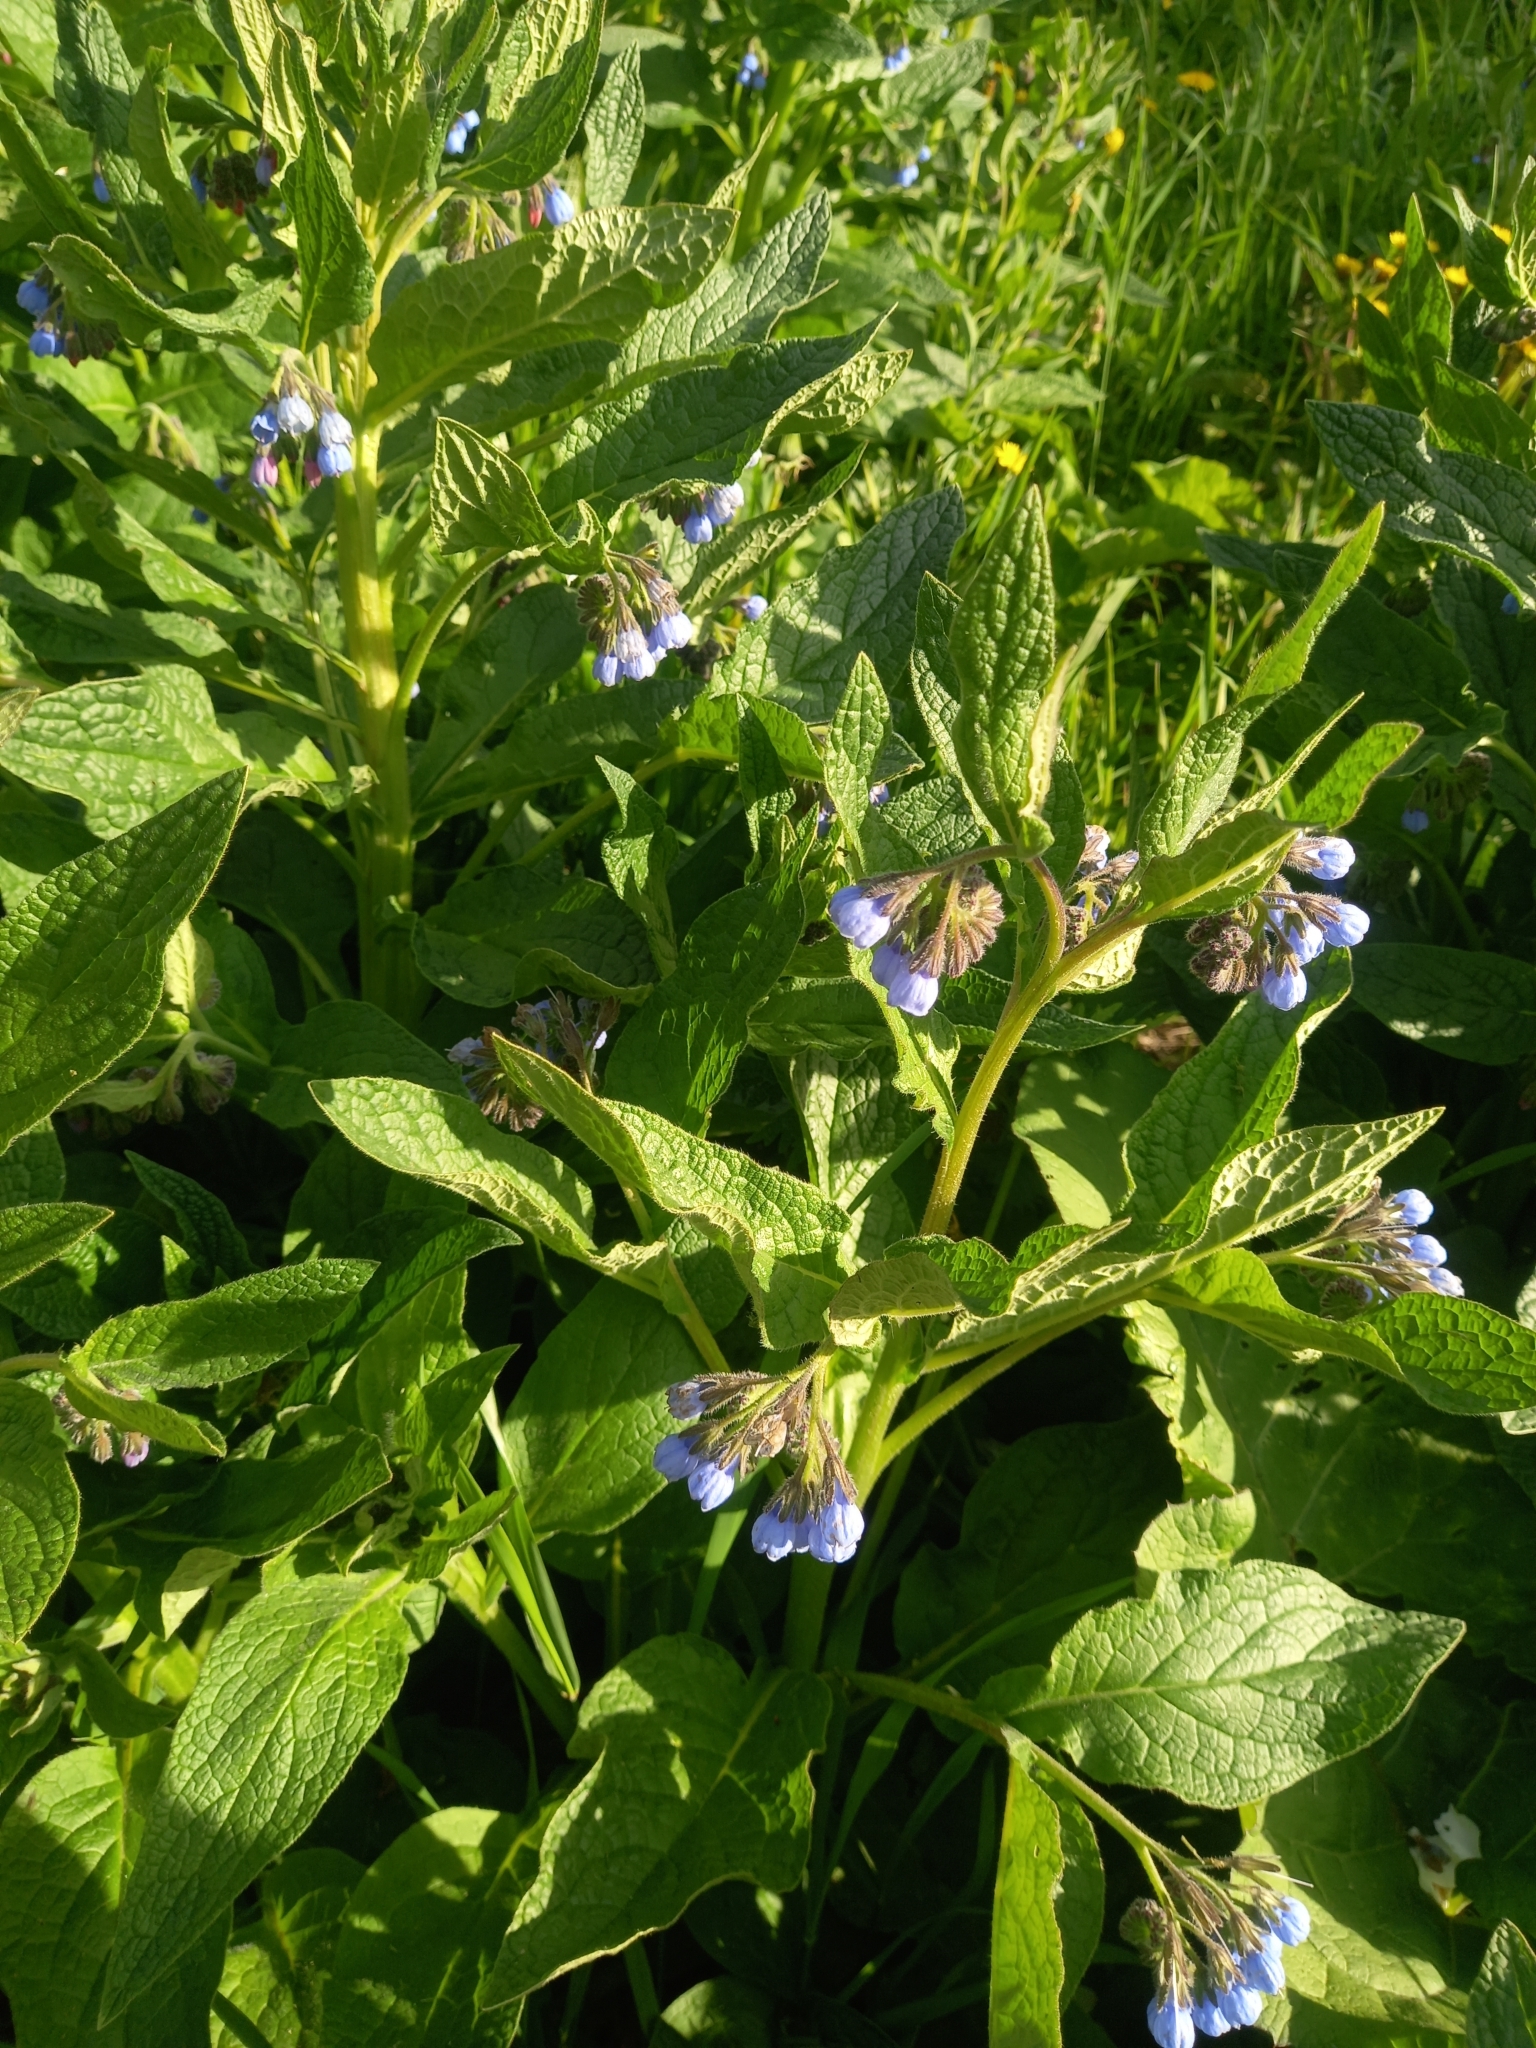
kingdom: Plantae
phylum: Tracheophyta
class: Magnoliopsida
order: Boraginales
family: Boraginaceae
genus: Symphytum
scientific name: Symphytum caucasicum
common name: Caucasian comfrey
